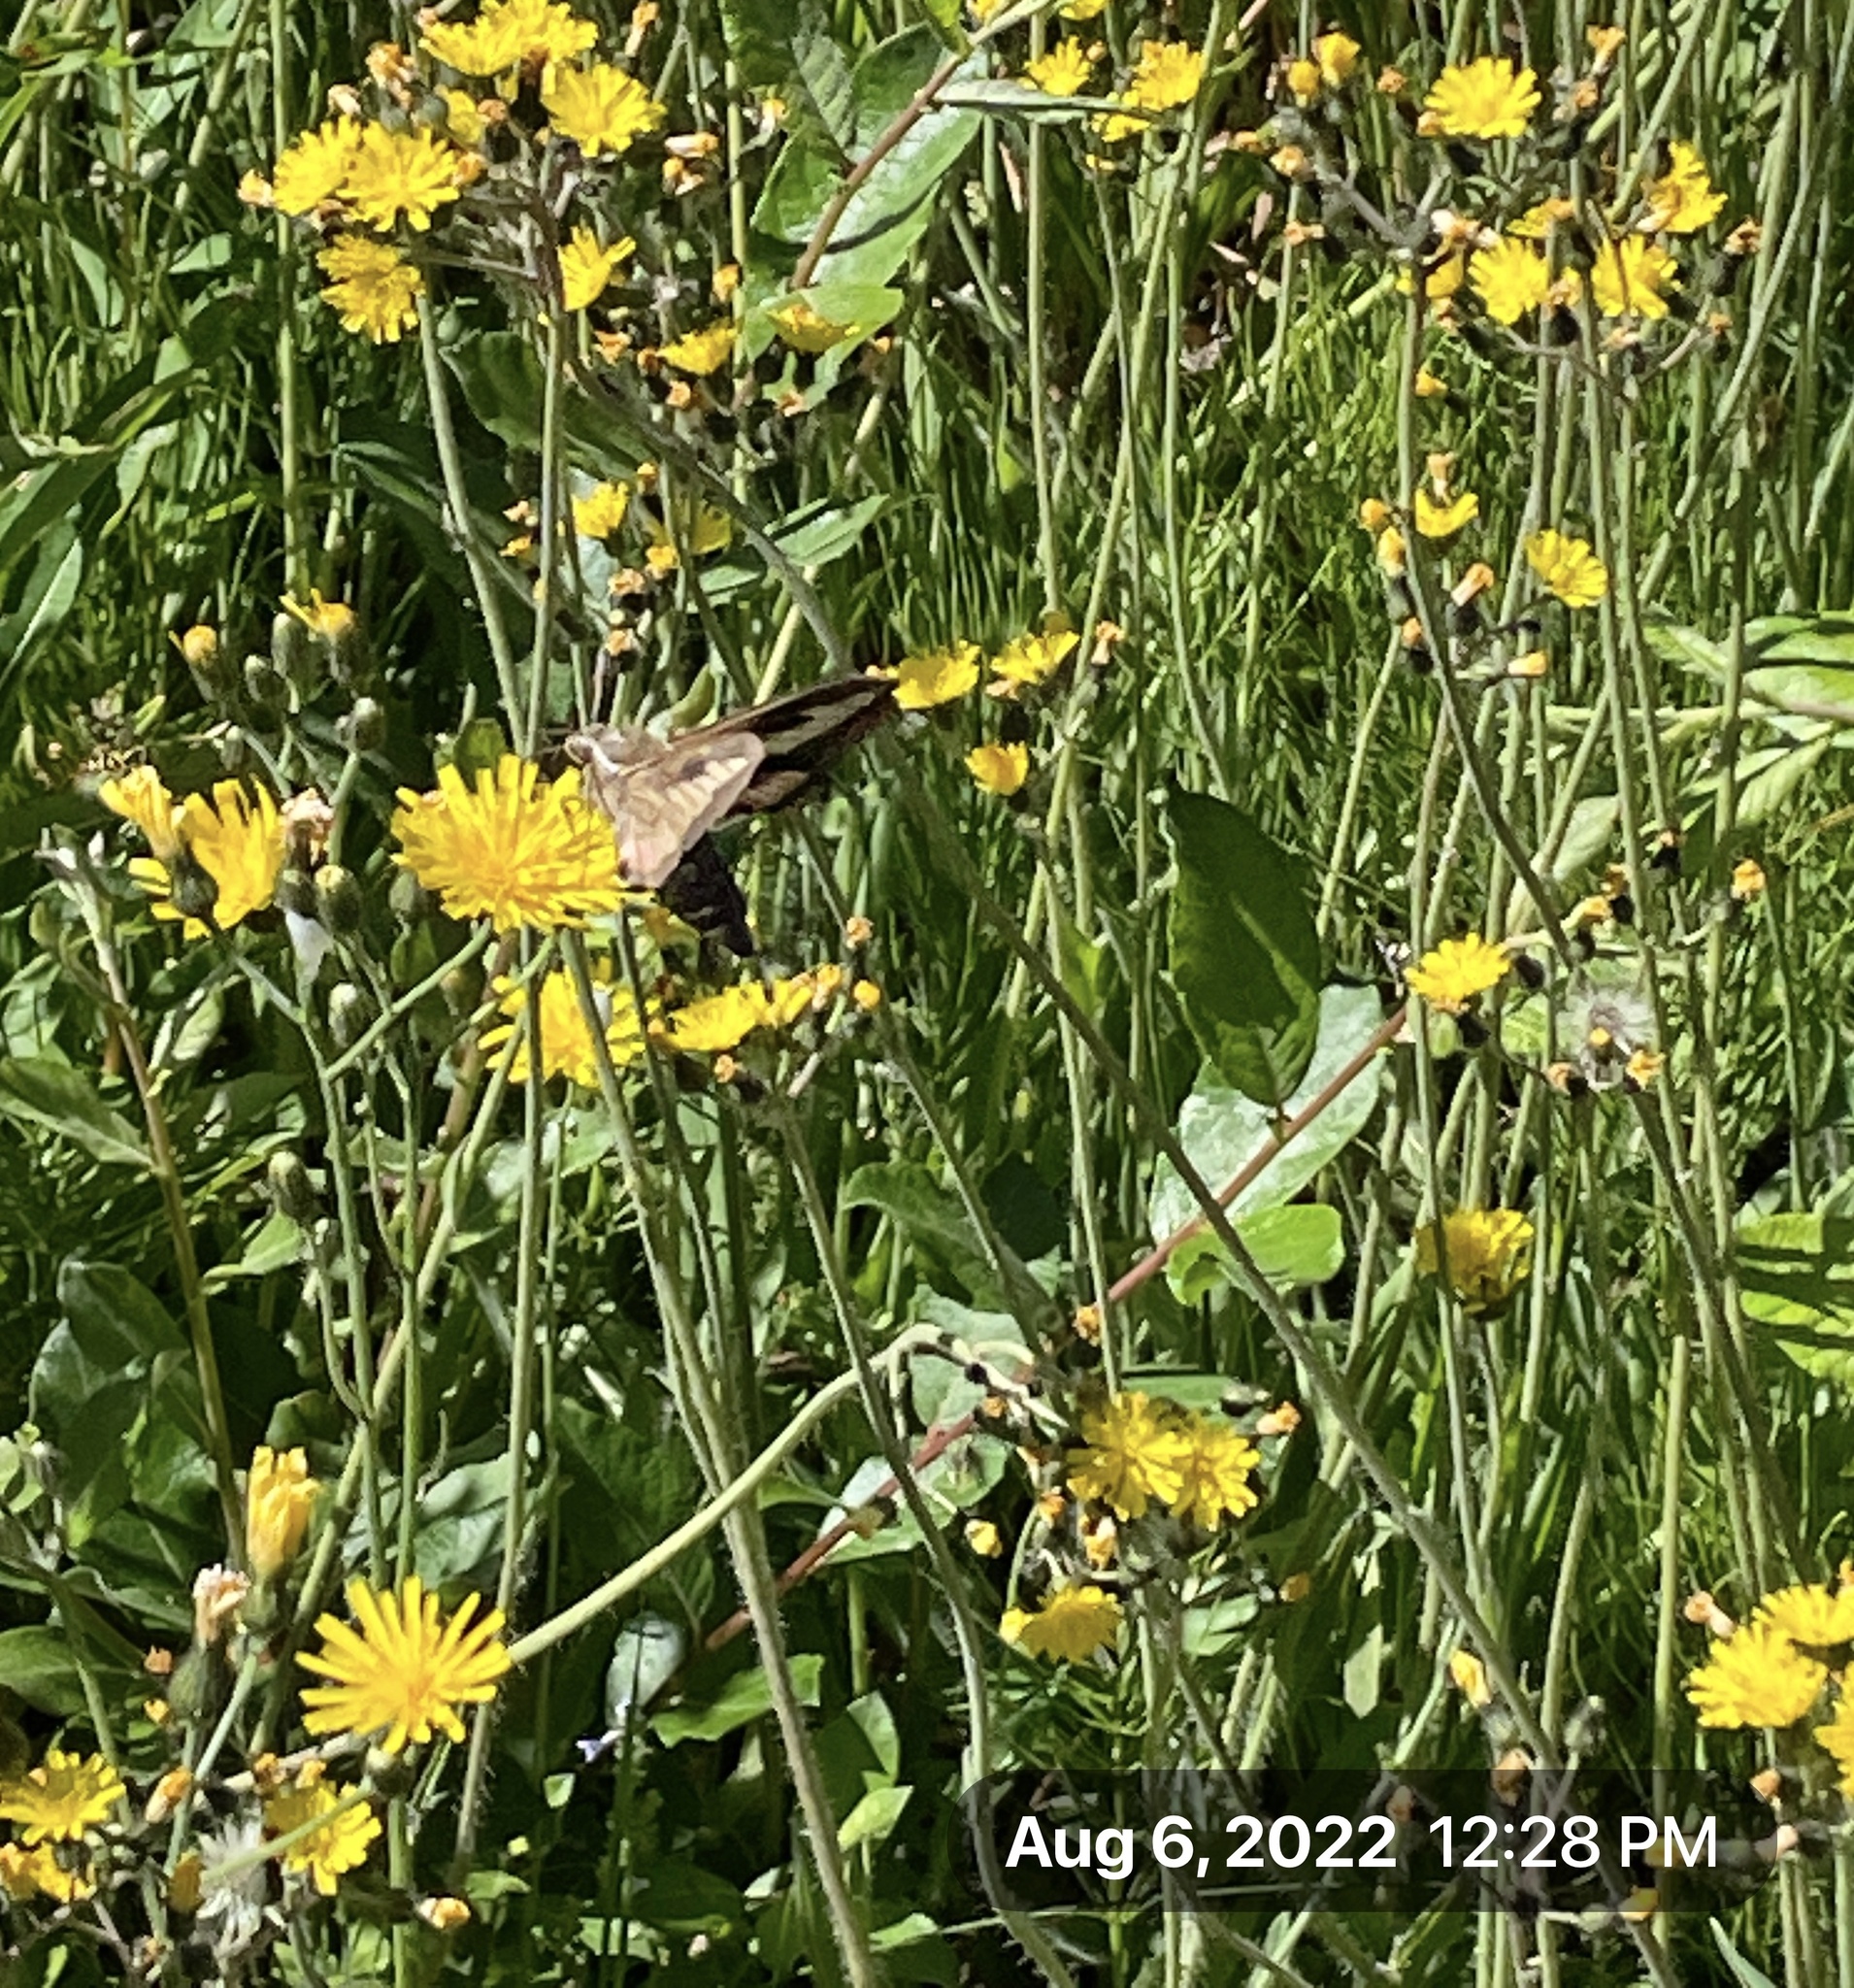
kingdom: Animalia
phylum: Arthropoda
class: Insecta
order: Lepidoptera
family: Sphingidae
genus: Hyles
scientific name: Hyles gallii
